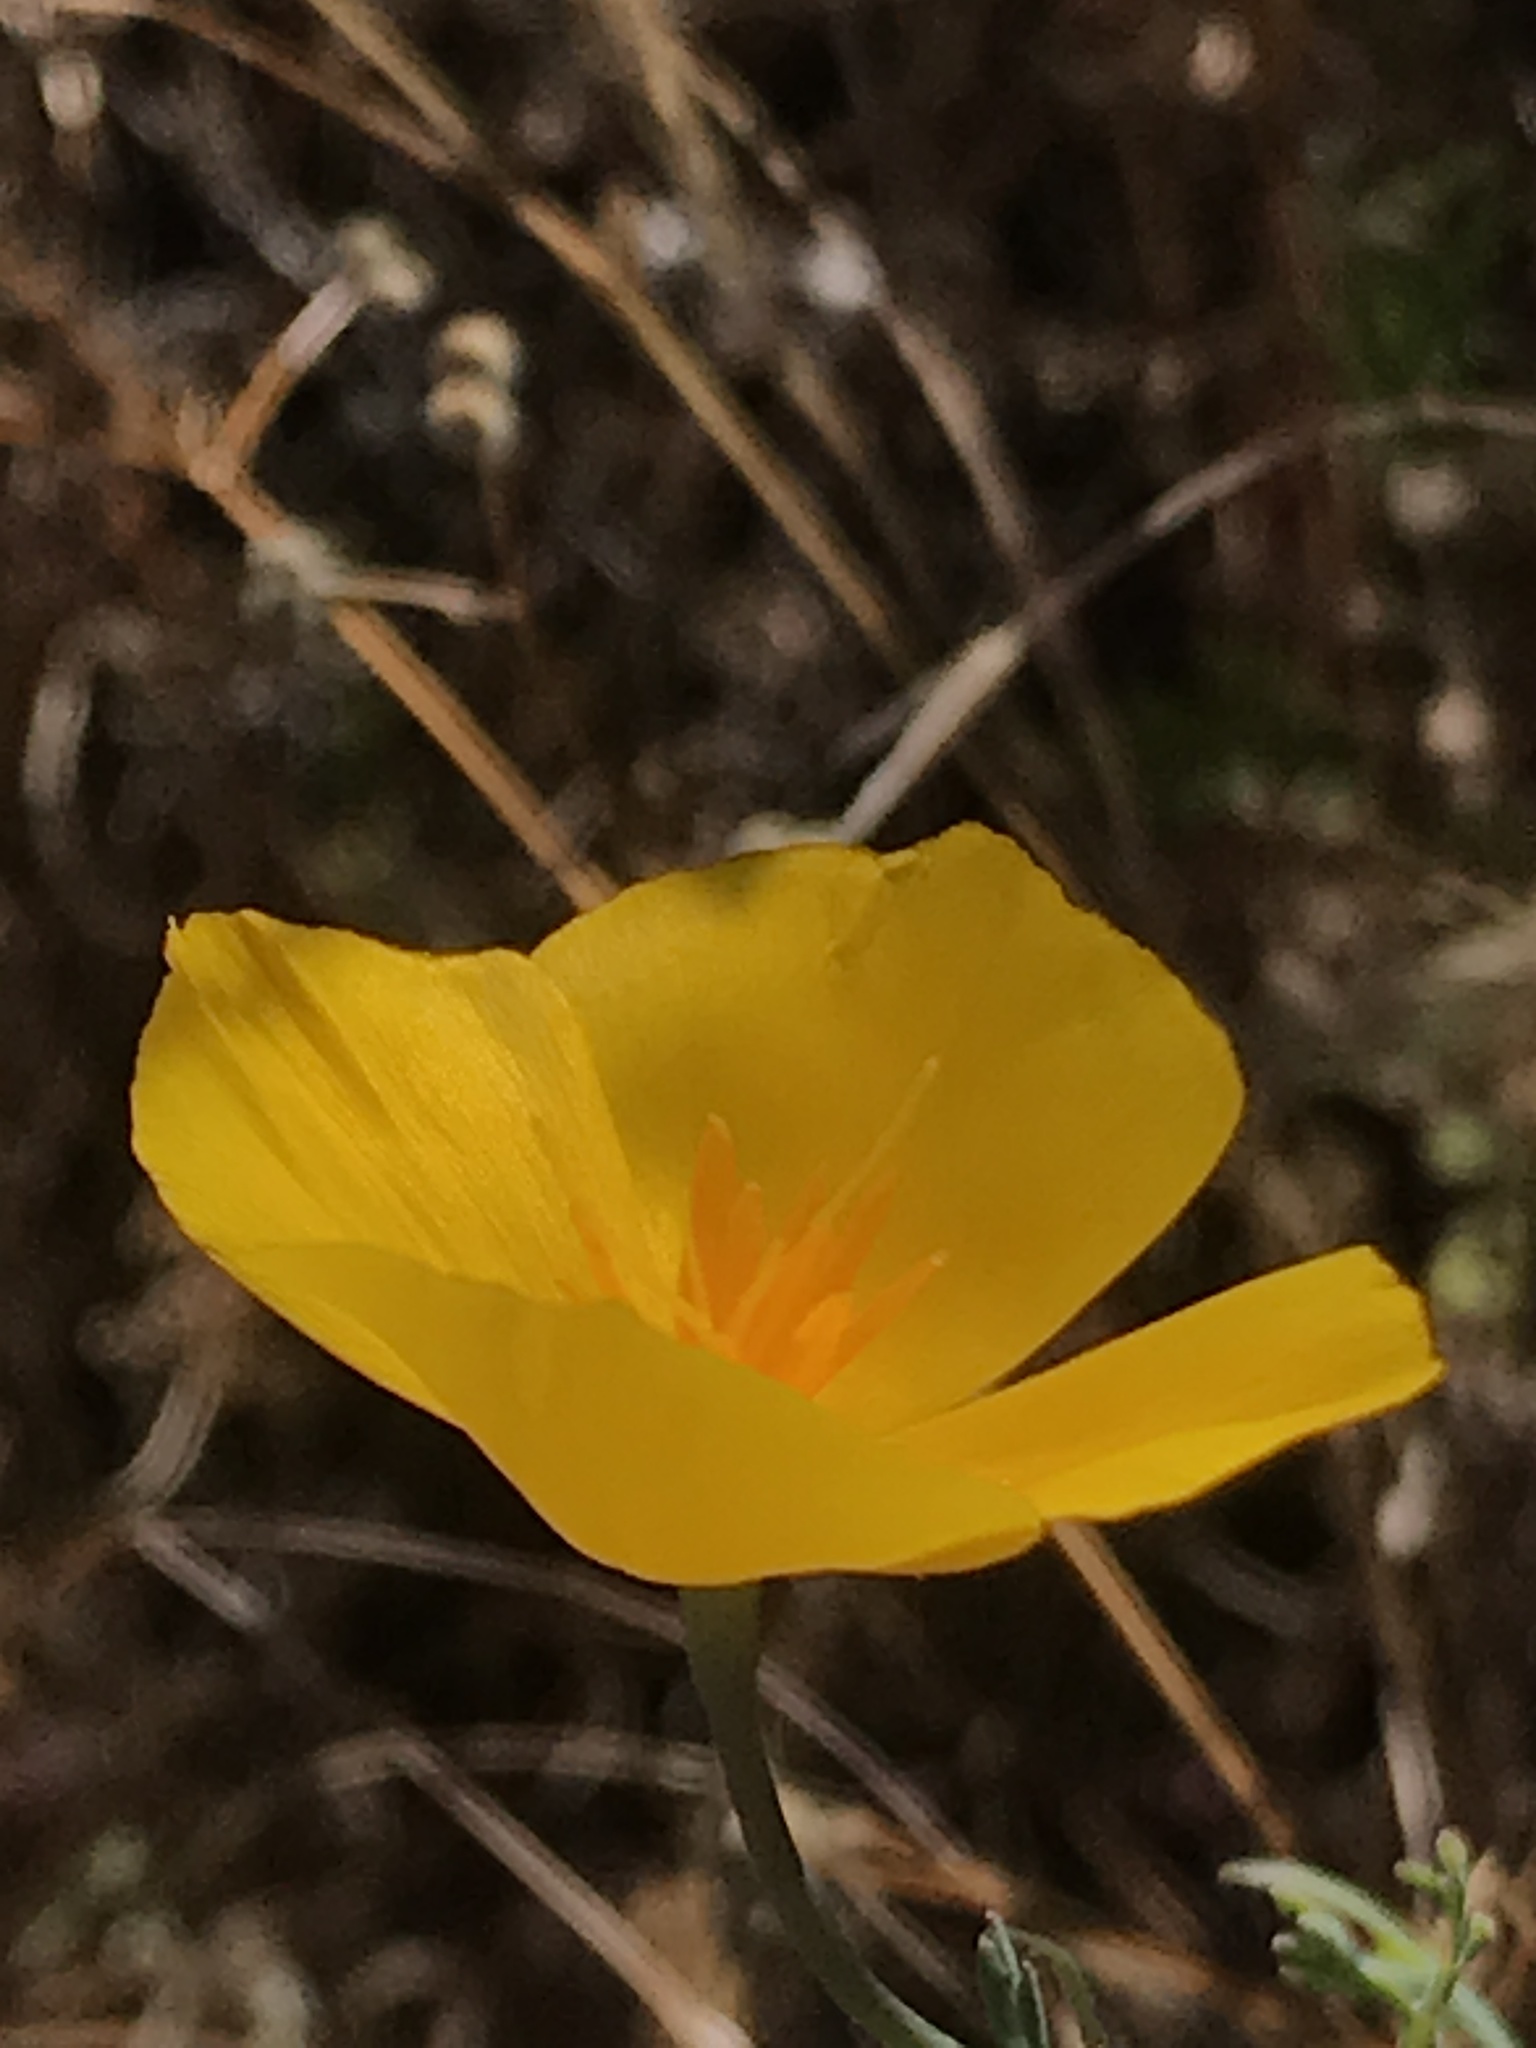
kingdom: Plantae
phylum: Tracheophyta
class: Magnoliopsida
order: Ranunculales
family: Papaveraceae
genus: Eschscholzia
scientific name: Eschscholzia caespitosa
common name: Tufted california-poppy
